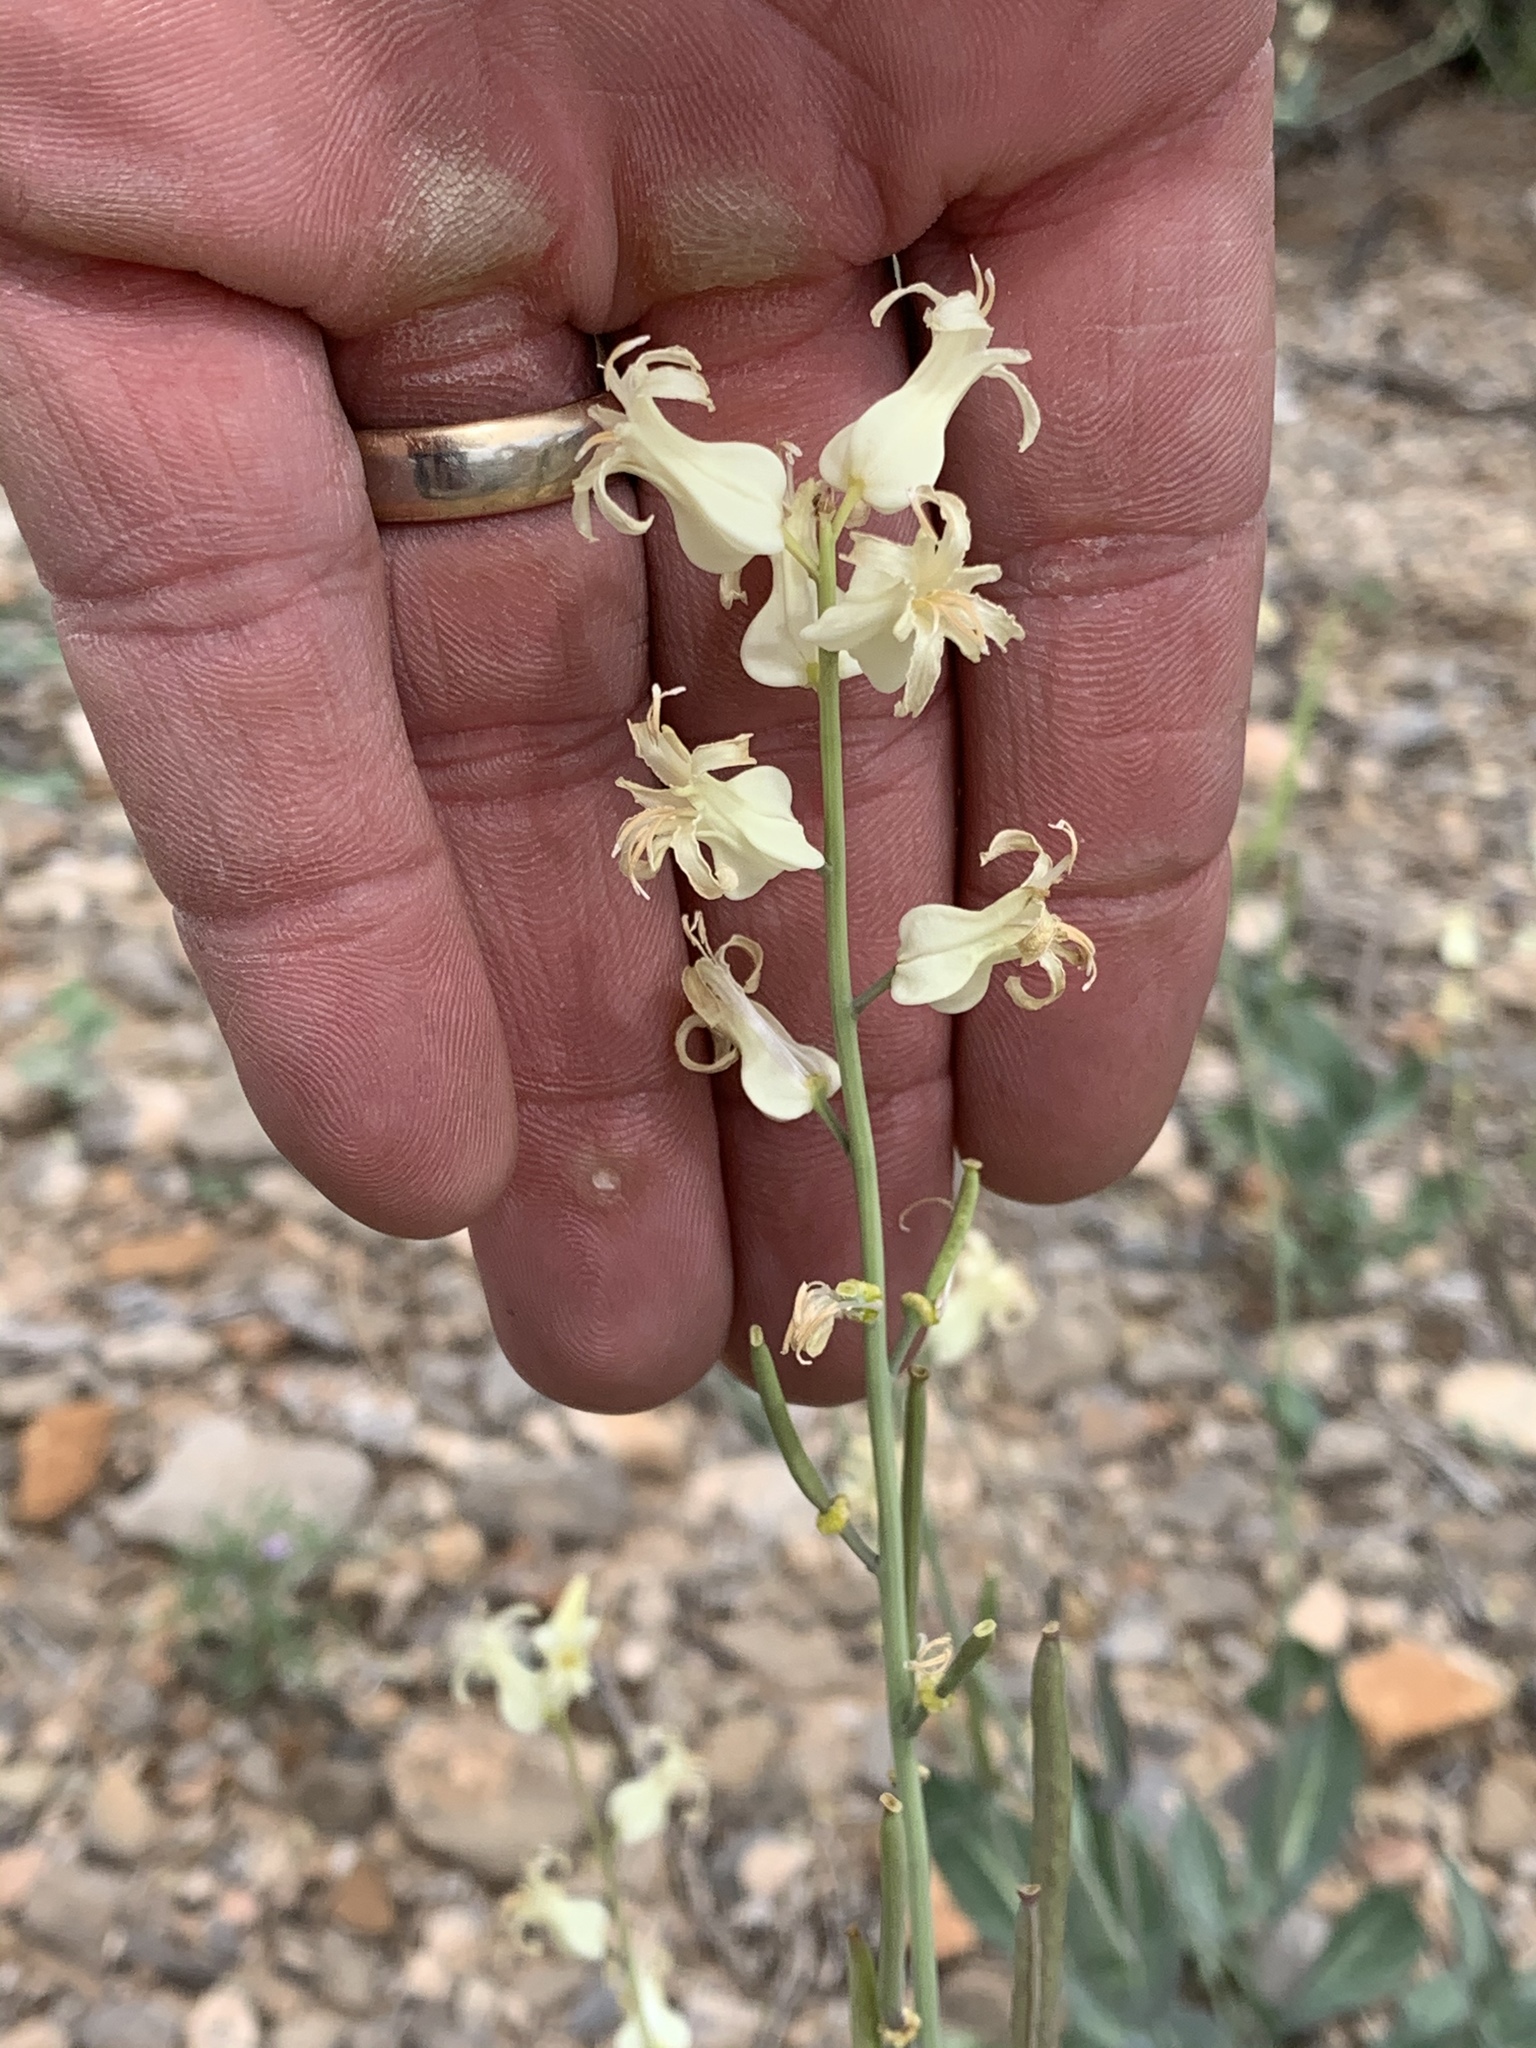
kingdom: Plantae
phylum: Tracheophyta
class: Magnoliopsida
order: Brassicales
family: Brassicaceae
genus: Streptanthus
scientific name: Streptanthus carinatus
